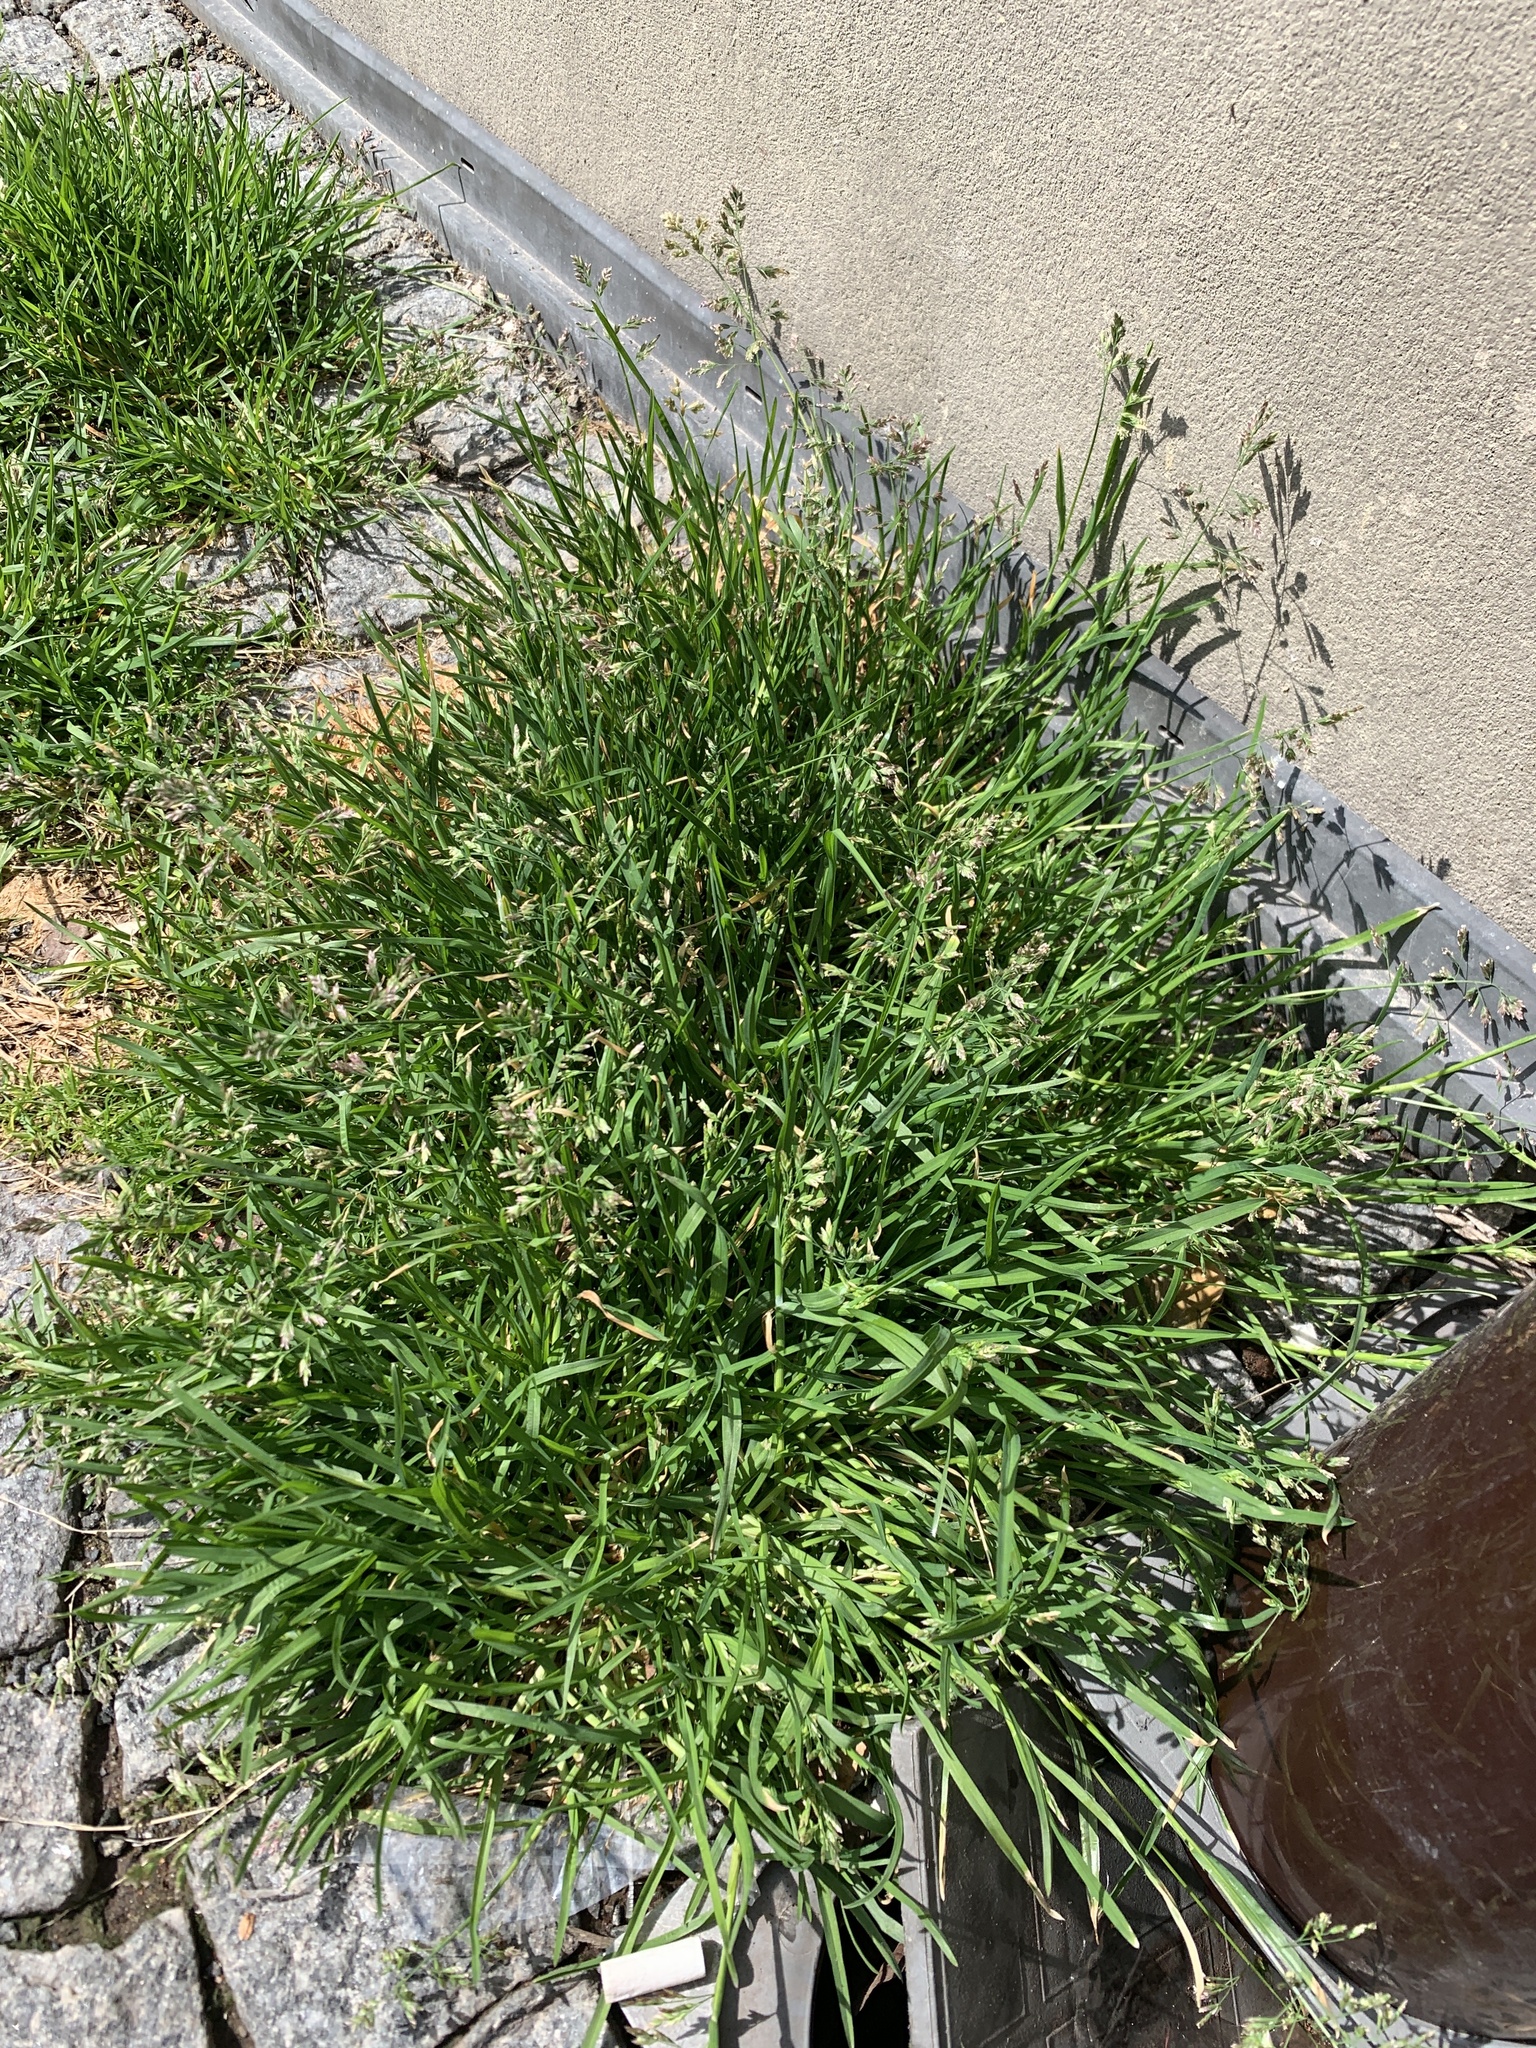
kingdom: Plantae
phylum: Tracheophyta
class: Liliopsida
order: Poales
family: Poaceae
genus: Poa
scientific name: Poa annua
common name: Annual bluegrass
